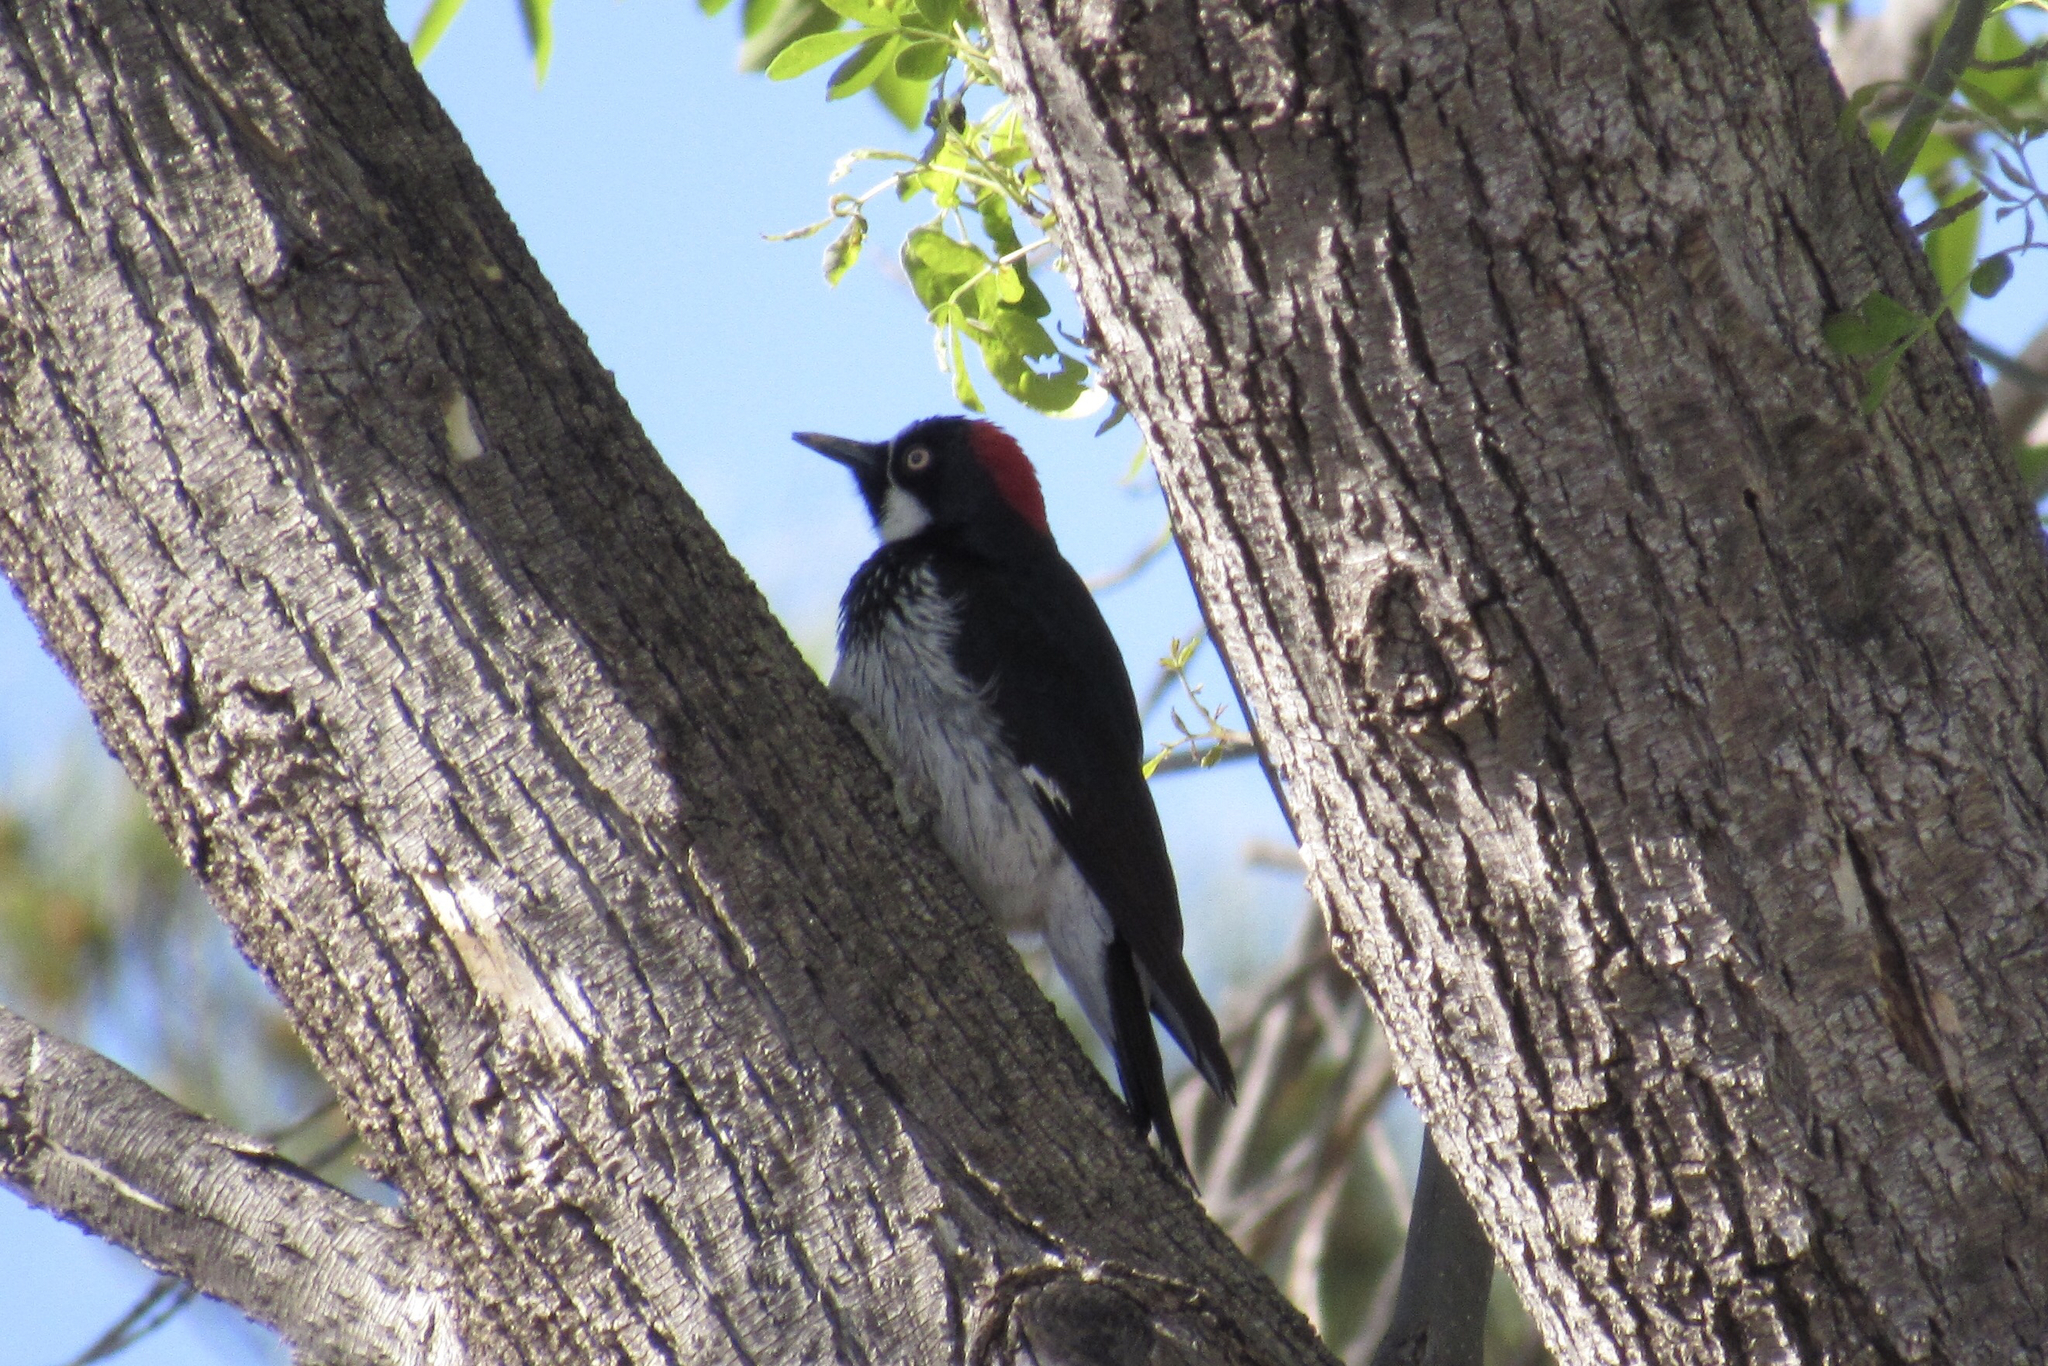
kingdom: Animalia
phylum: Chordata
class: Aves
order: Piciformes
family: Picidae
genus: Melanerpes
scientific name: Melanerpes formicivorus
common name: Acorn woodpecker
